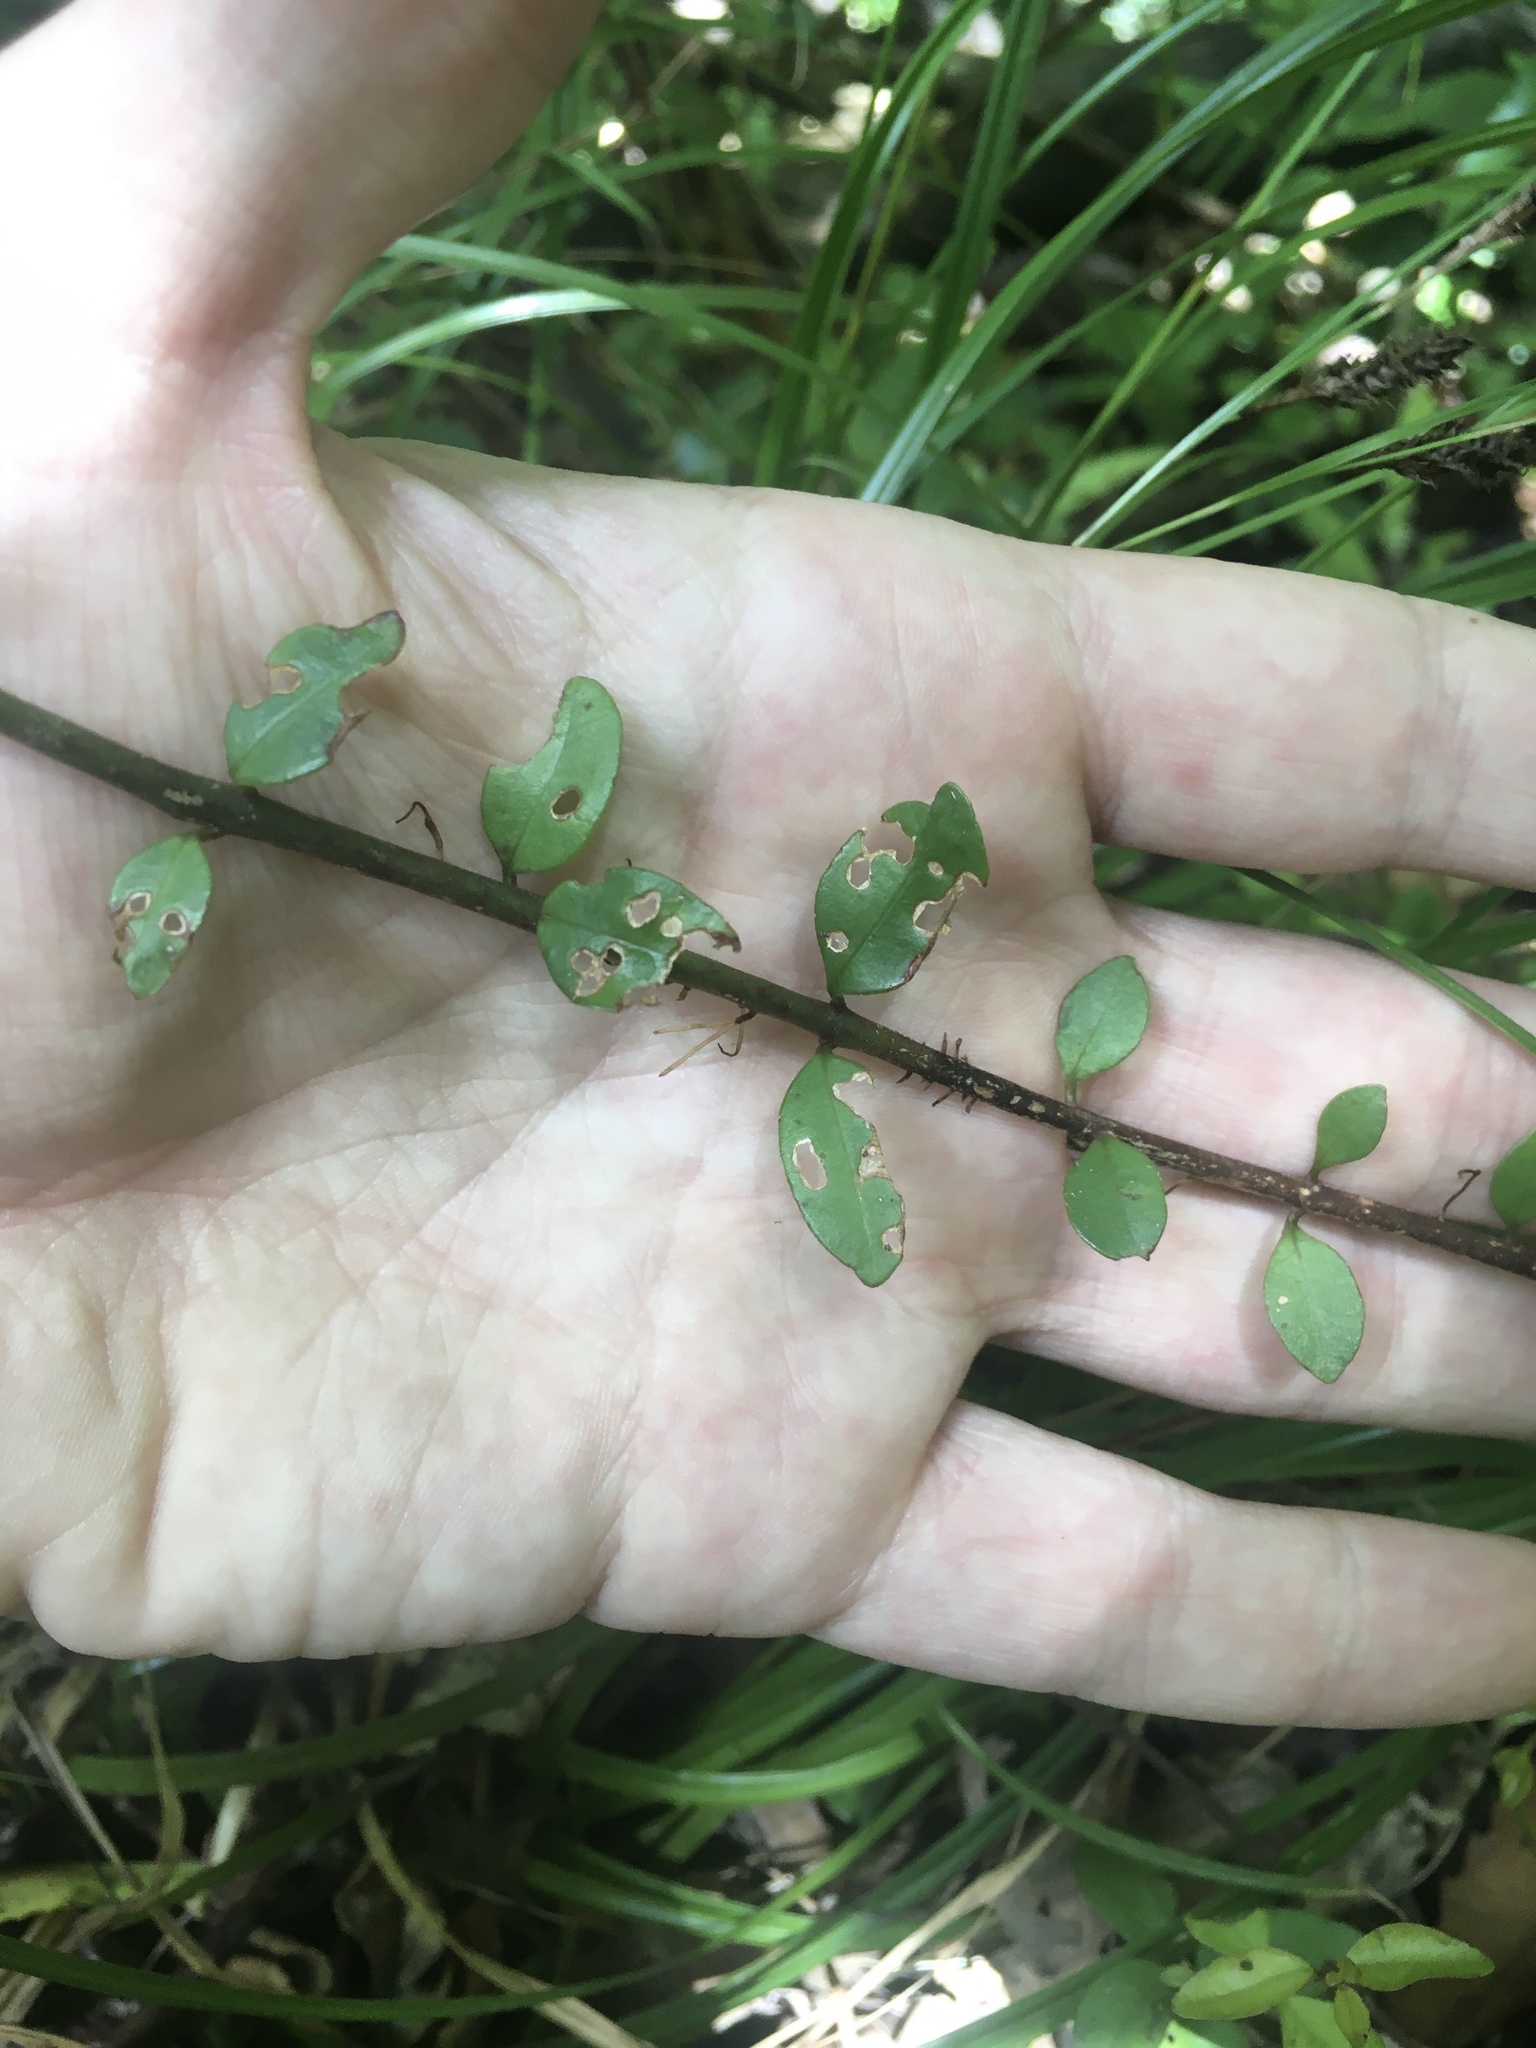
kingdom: Plantae
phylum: Tracheophyta
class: Magnoliopsida
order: Myrtales
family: Myrtaceae
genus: Metrosideros
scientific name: Metrosideros fulgens
